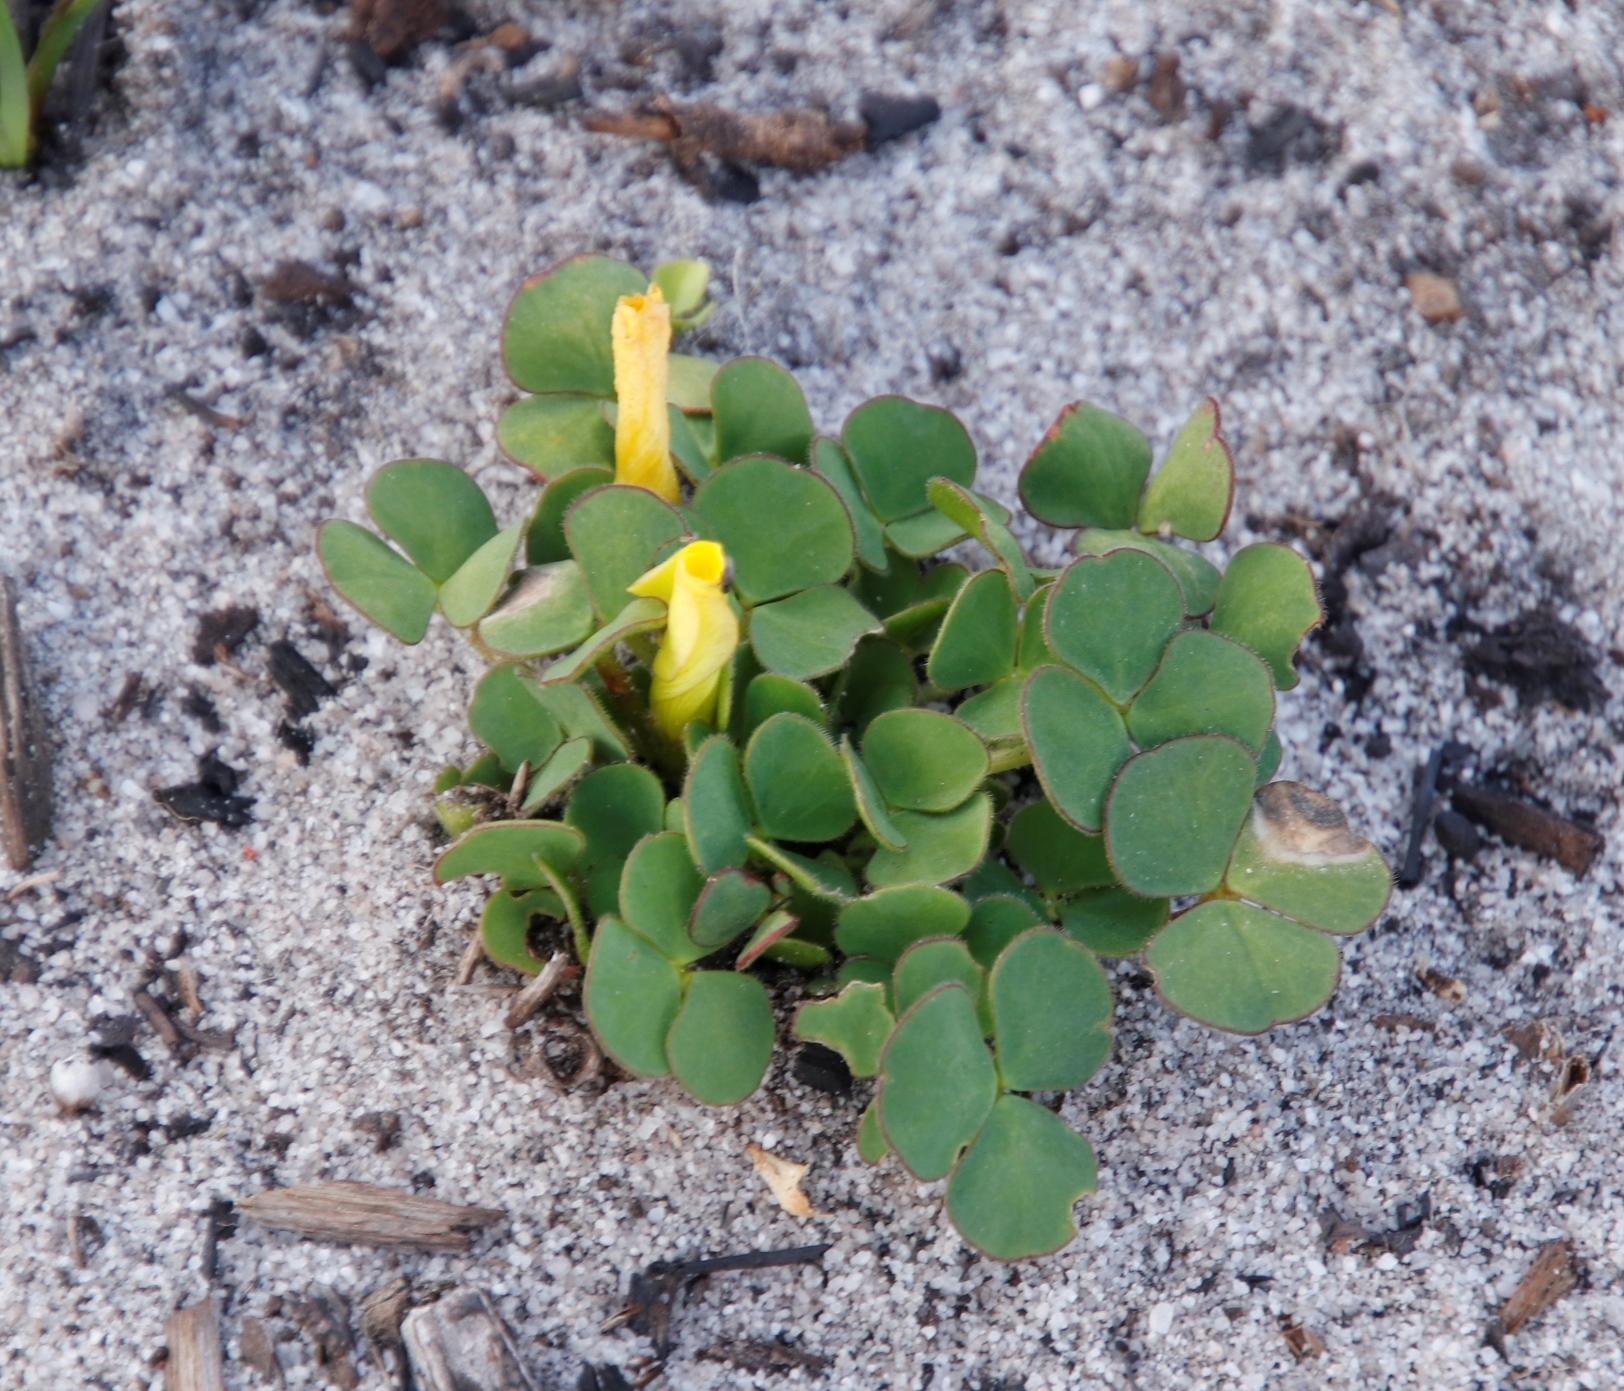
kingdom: Plantae
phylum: Tracheophyta
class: Magnoliopsida
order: Oxalidales
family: Oxalidaceae
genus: Oxalis
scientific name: Oxalis luteola
